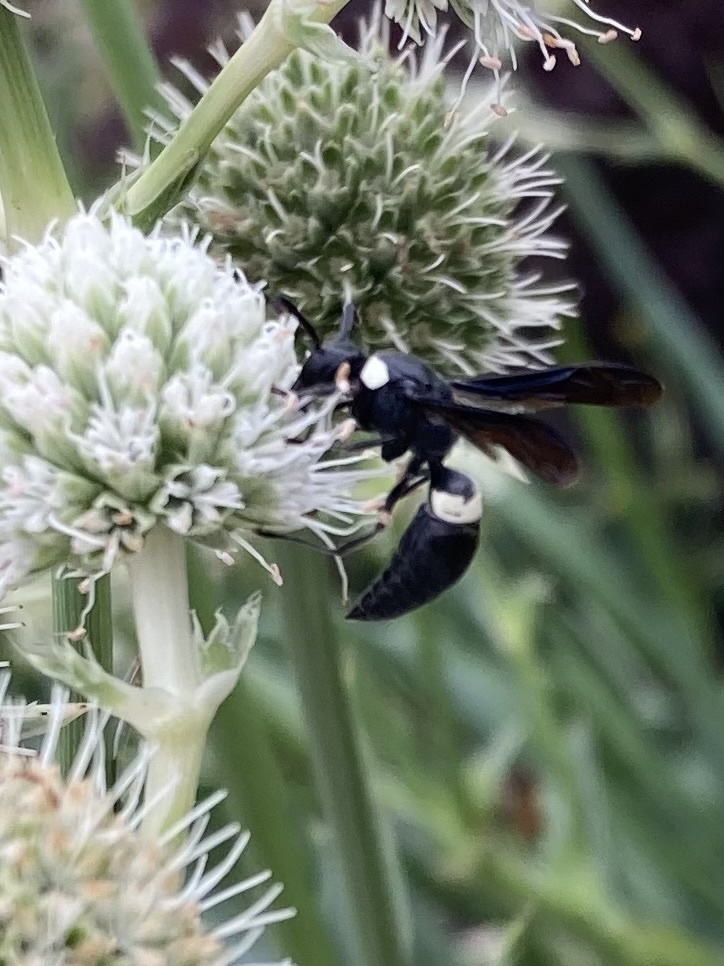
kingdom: Animalia
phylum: Arthropoda
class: Insecta
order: Hymenoptera
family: Eumenidae
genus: Monobia
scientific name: Monobia quadridens
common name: Four-toothed mason wasp
